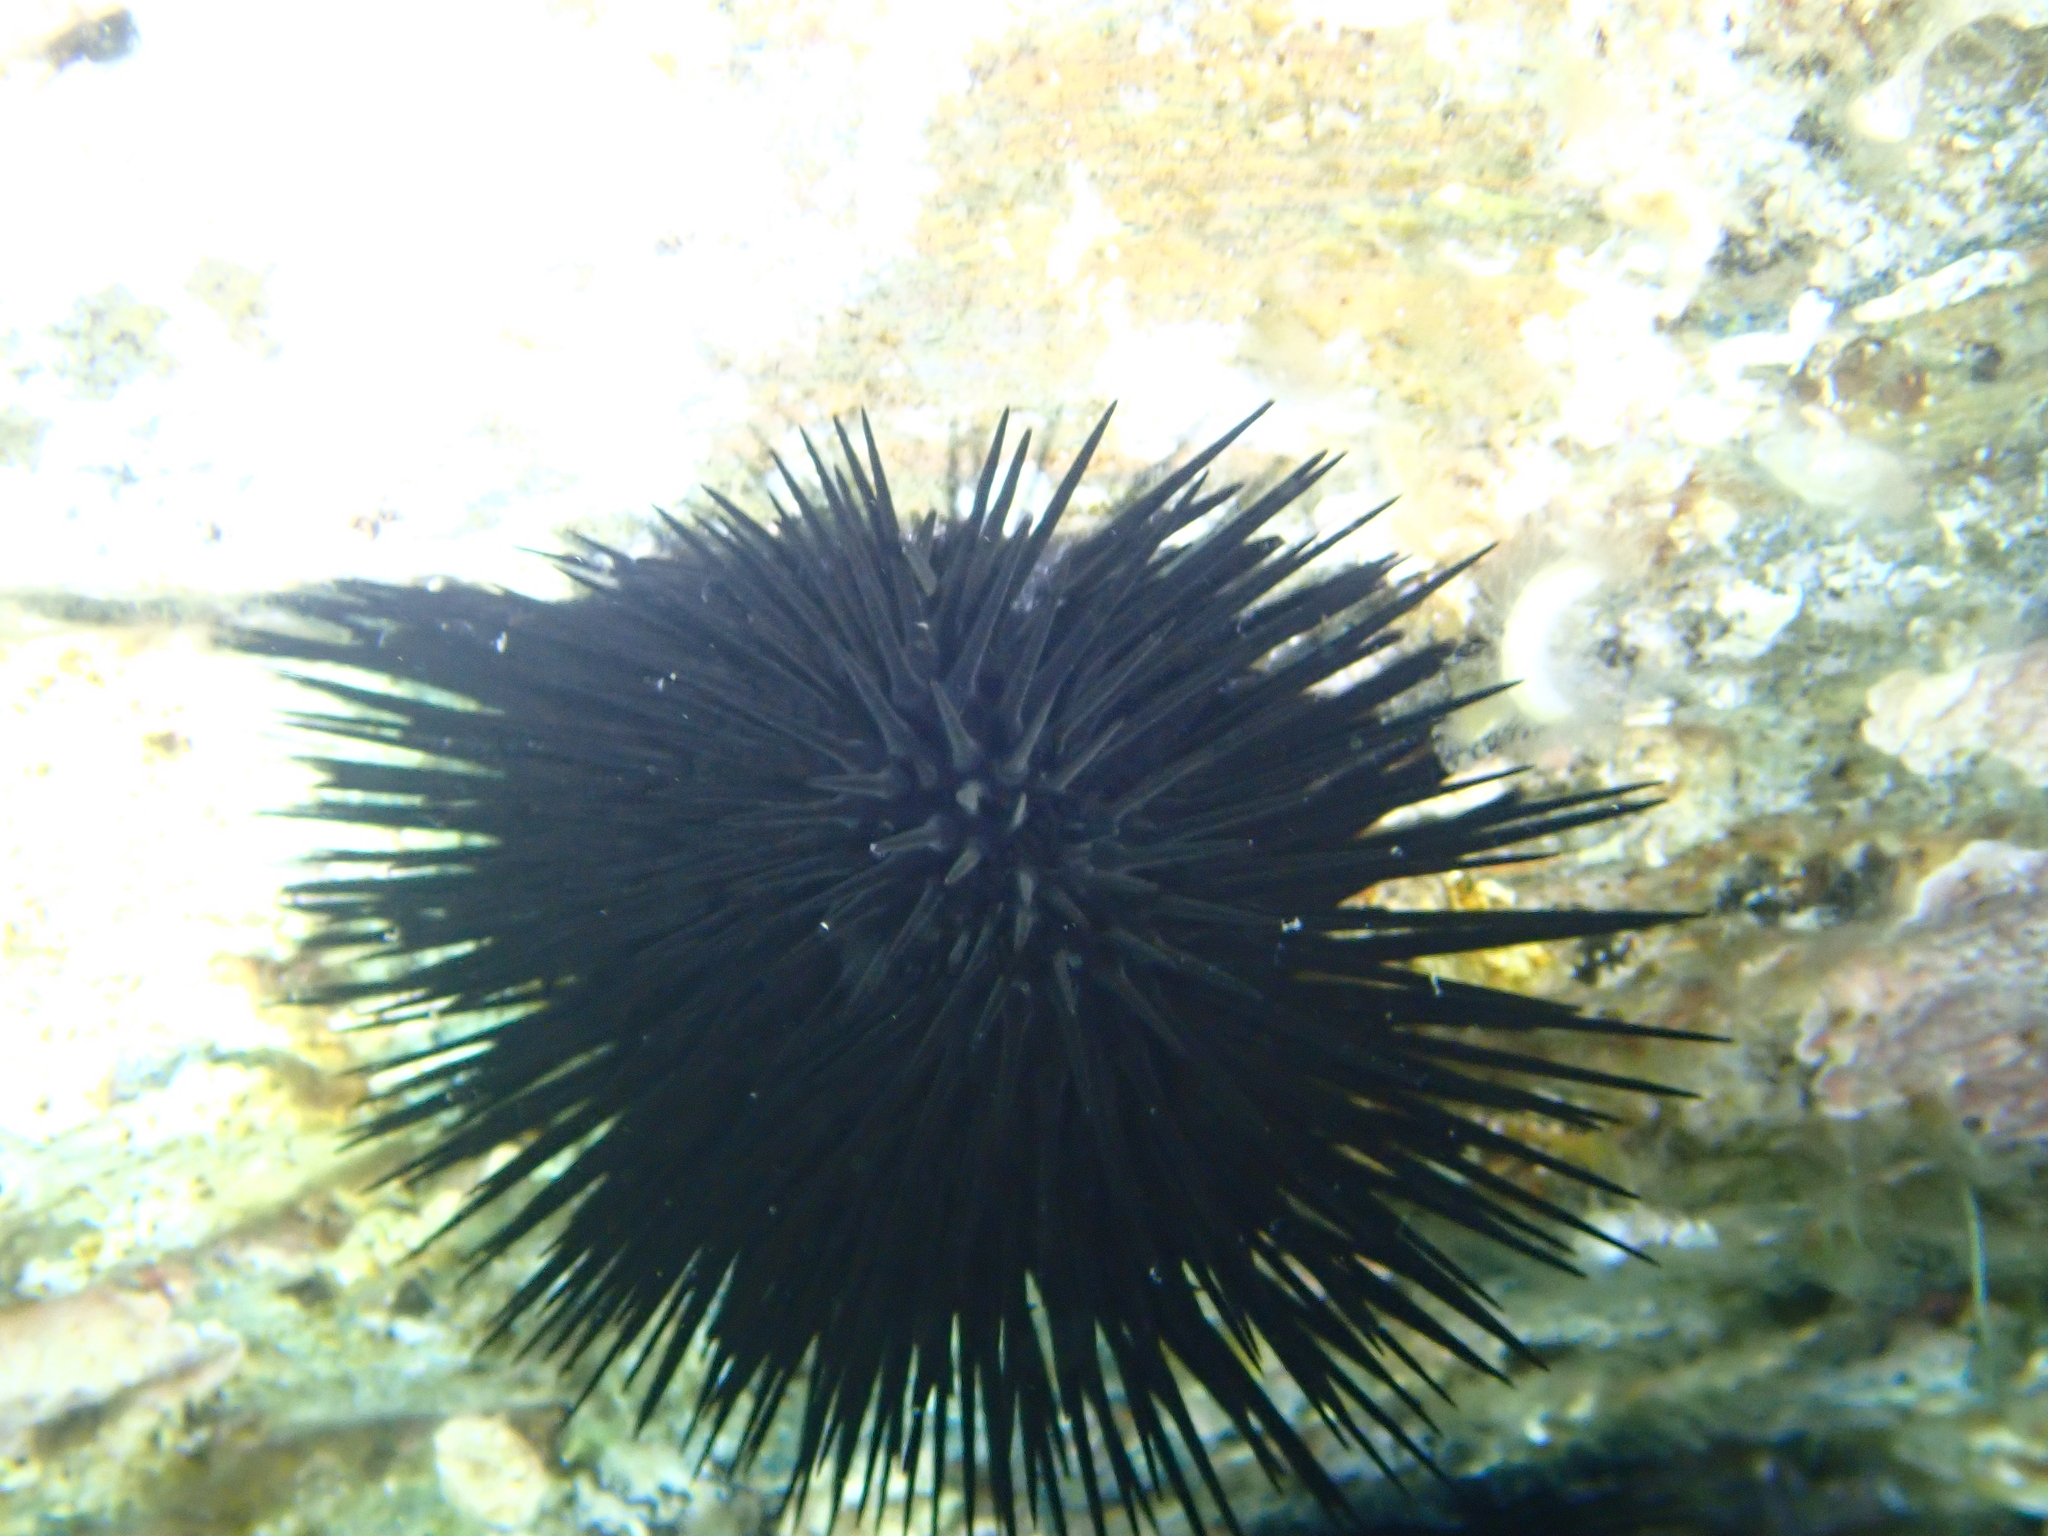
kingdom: Animalia
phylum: Echinodermata
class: Echinoidea
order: Arbacioida
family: Arbaciidae
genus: Arbacia
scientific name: Arbacia lixula
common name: Black sea urchin
